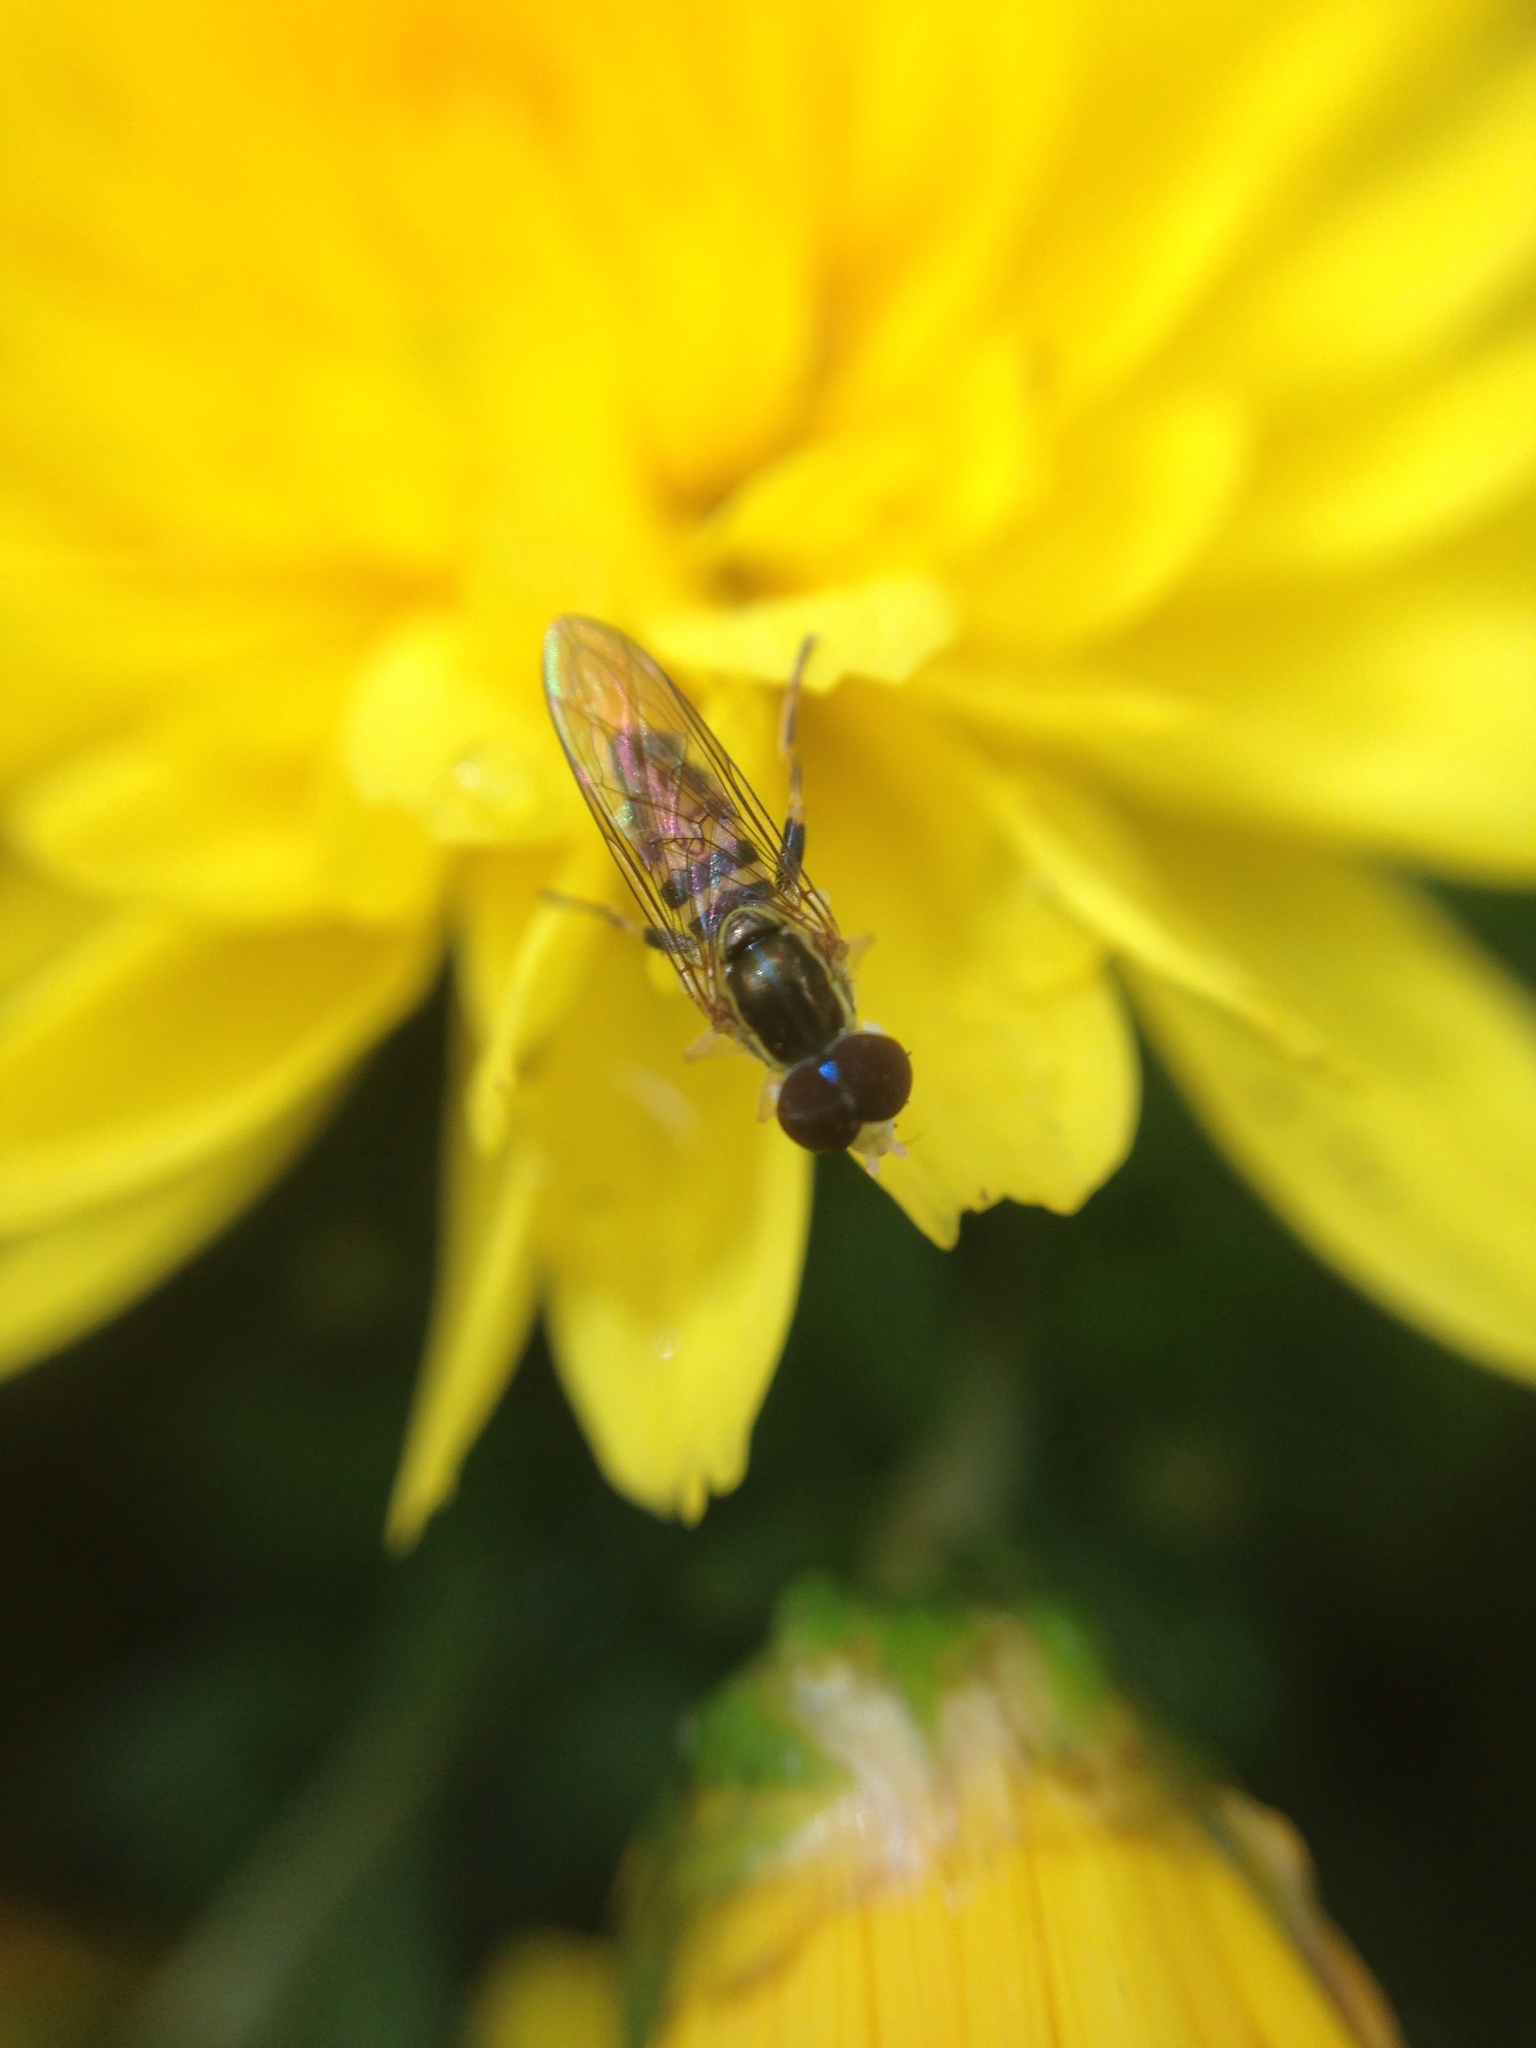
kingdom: Animalia
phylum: Arthropoda
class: Insecta
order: Diptera
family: Syrphidae
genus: Toxomerus
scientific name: Toxomerus geminatus
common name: Eastern calligrapher
